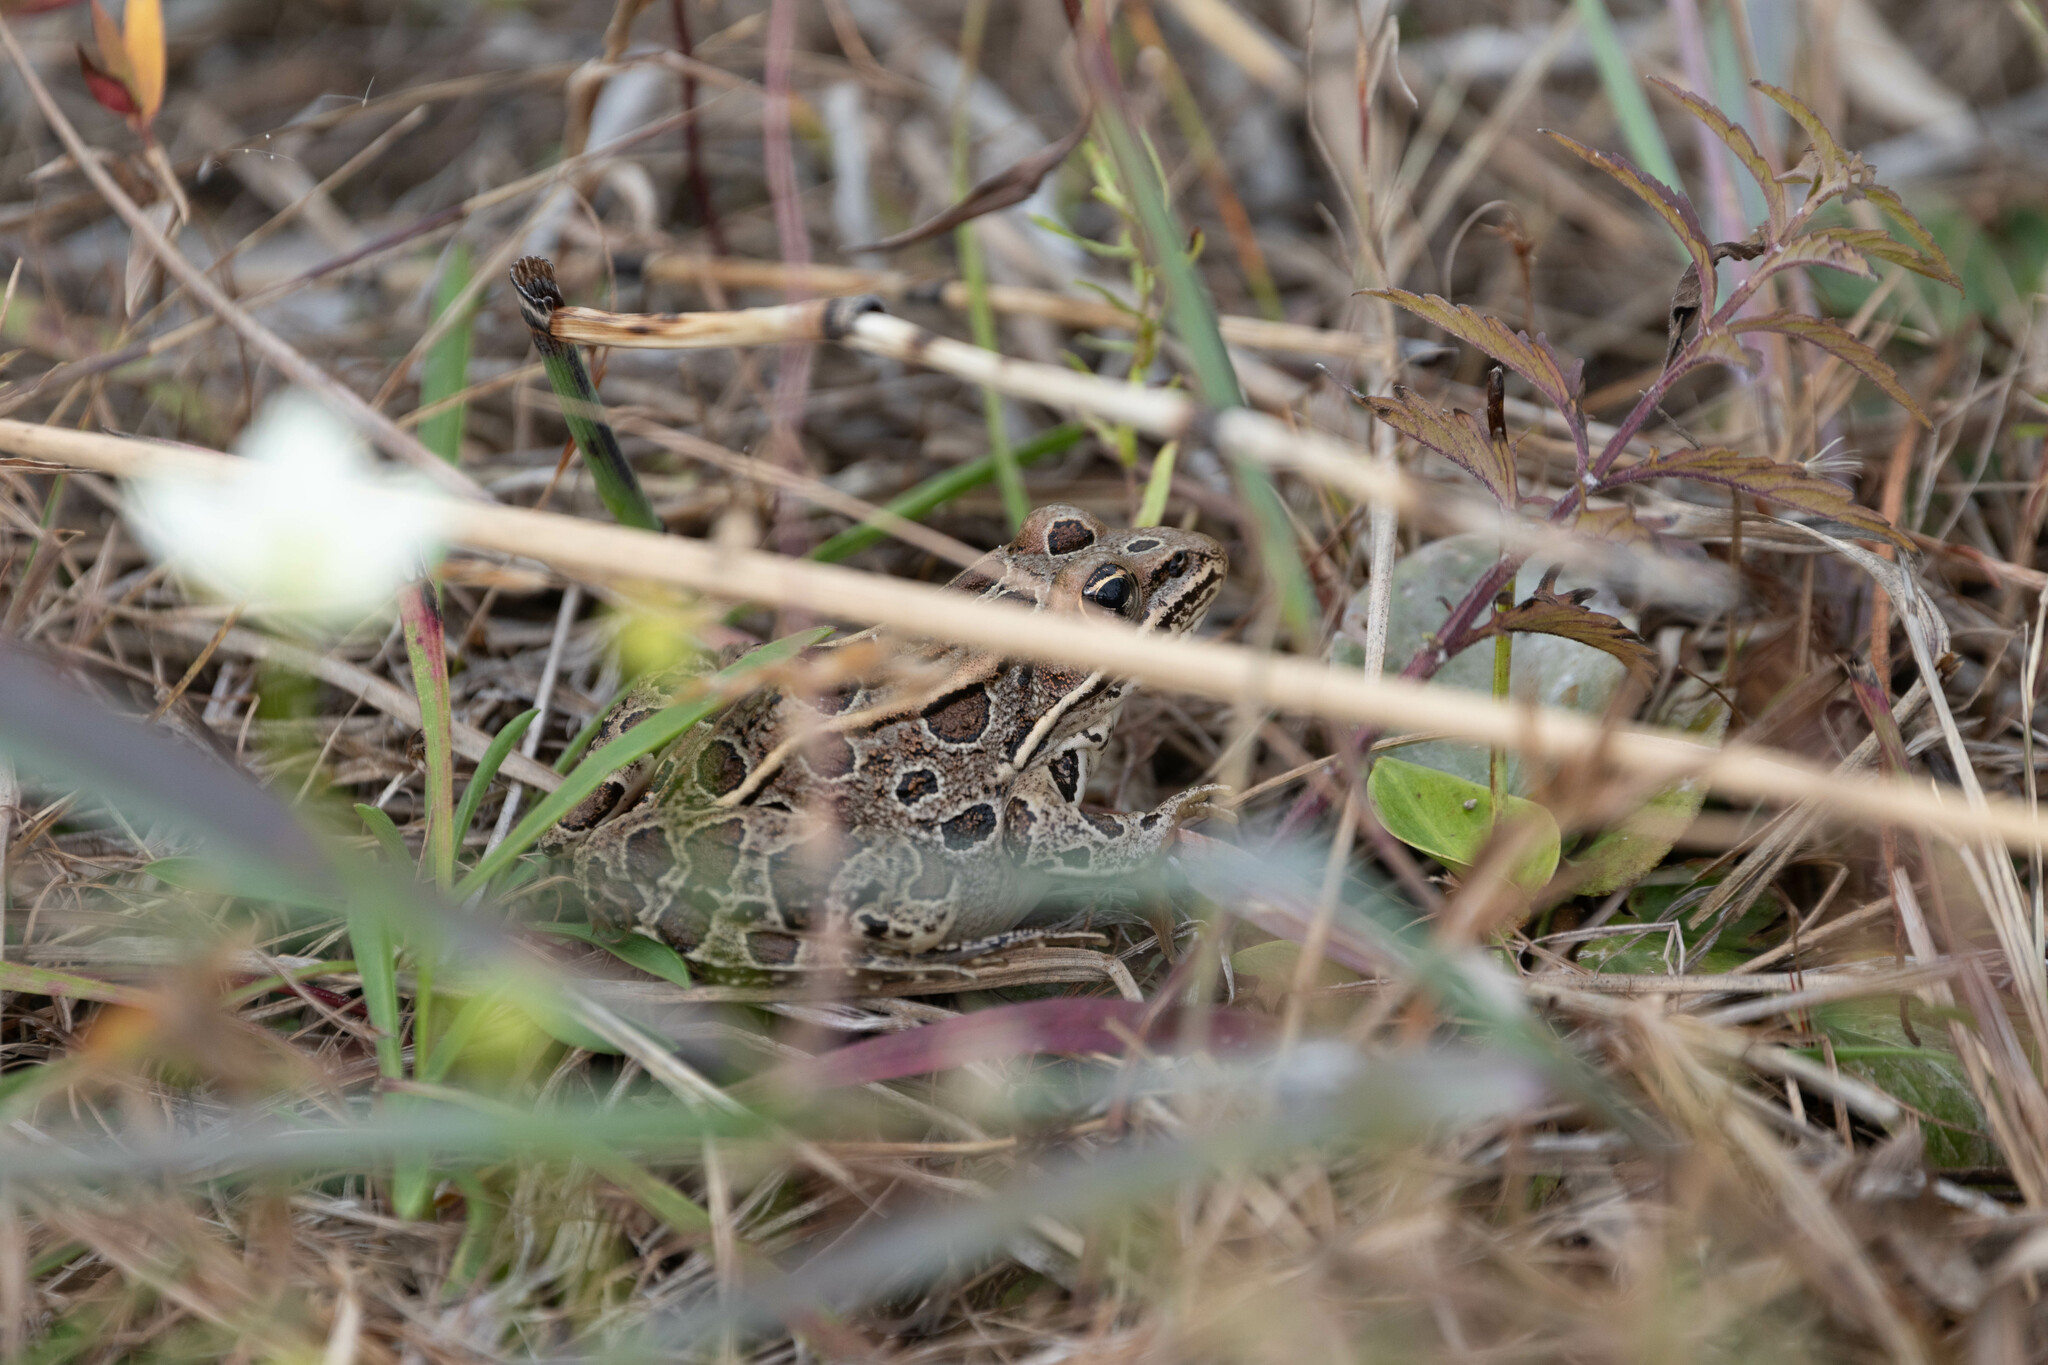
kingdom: Animalia
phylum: Chordata
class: Amphibia
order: Anura
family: Ranidae
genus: Lithobates
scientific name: Lithobates pipiens
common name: Northern leopard frog
